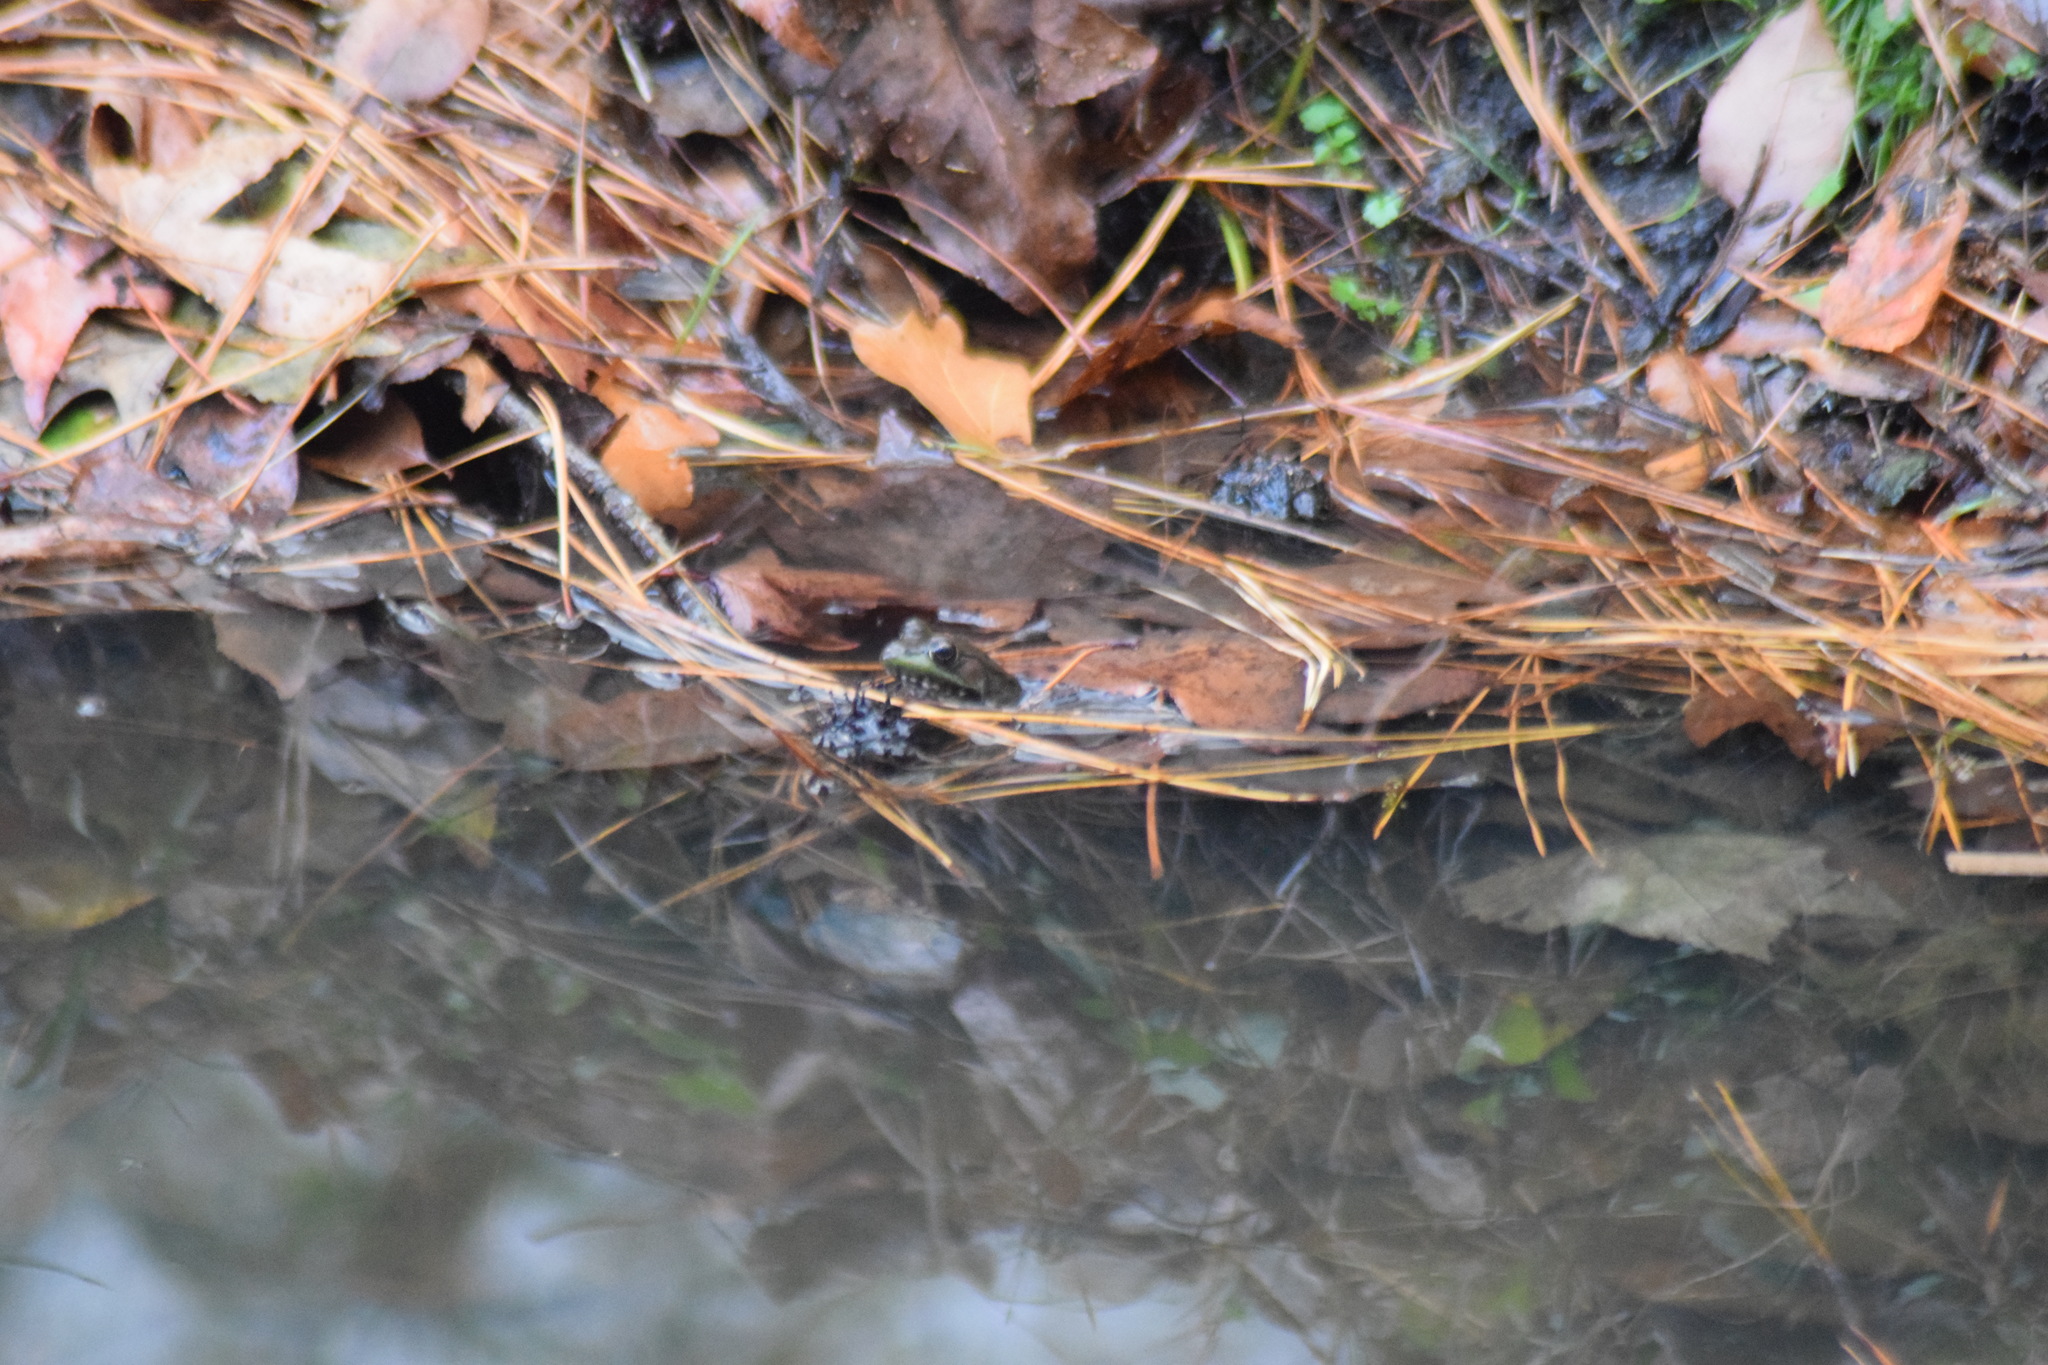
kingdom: Animalia
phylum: Chordata
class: Amphibia
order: Anura
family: Ranidae
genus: Lithobates
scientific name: Lithobates clamitans
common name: Green frog
